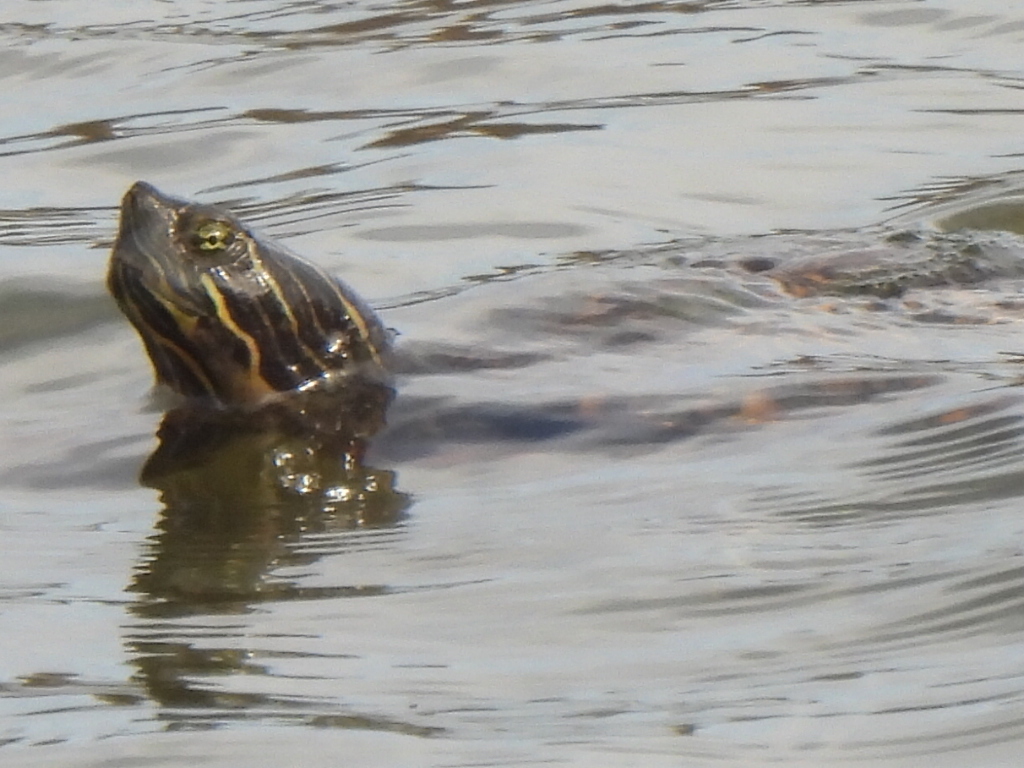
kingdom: Animalia
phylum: Chordata
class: Testudines
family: Emydidae
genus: Pseudemys
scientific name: Pseudemys concinna
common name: Eastern river cooter
